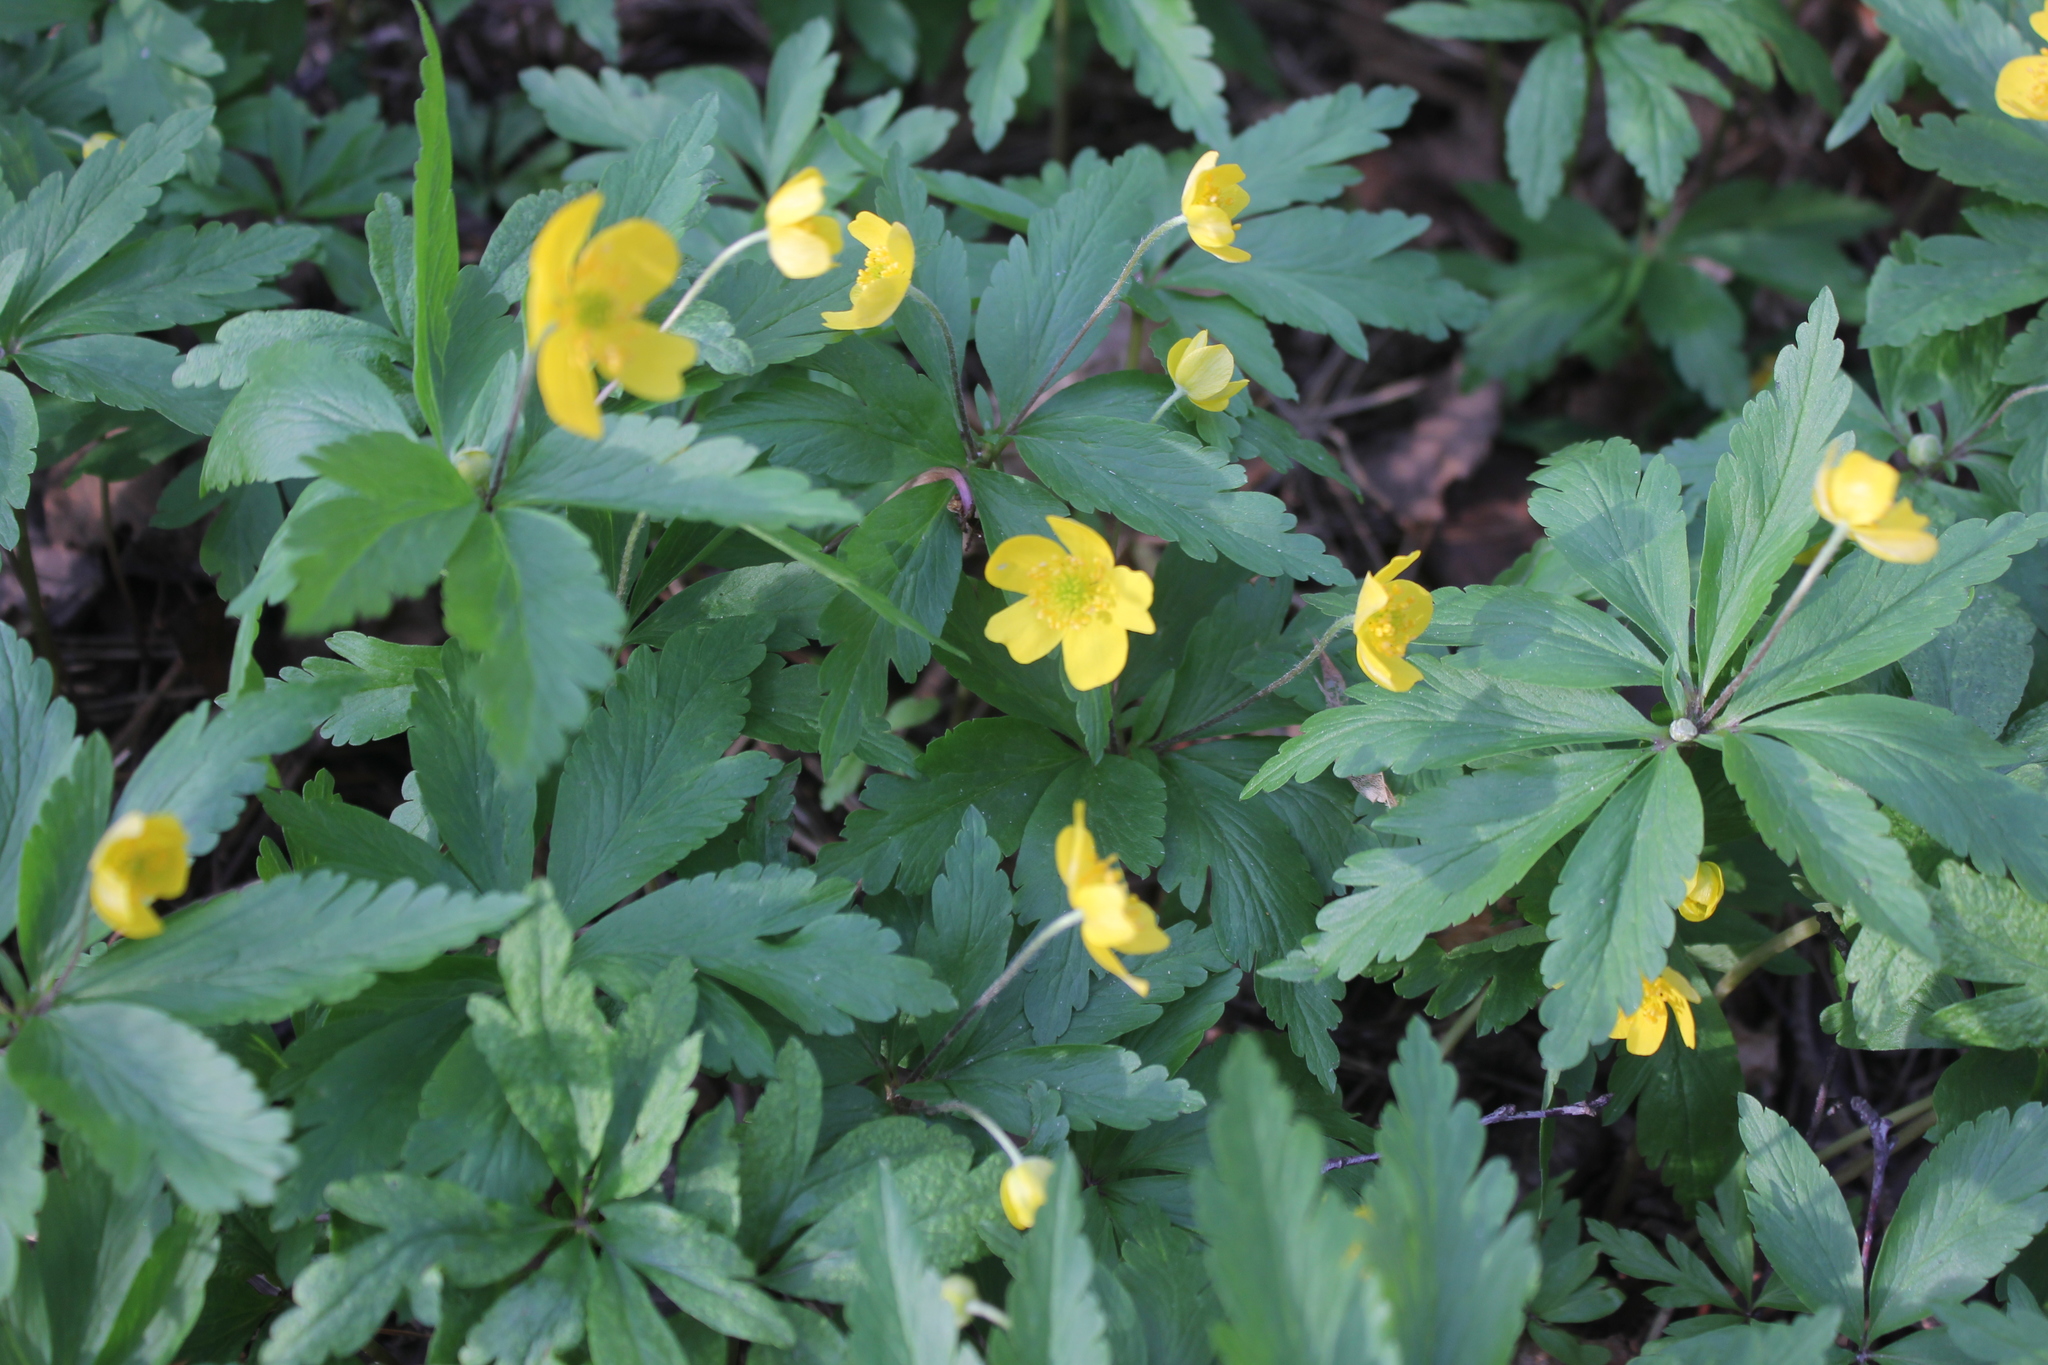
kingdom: Plantae
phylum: Tracheophyta
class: Magnoliopsida
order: Ranunculales
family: Ranunculaceae
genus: Anemone
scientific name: Anemone ranunculoides
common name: Yellow anemone
